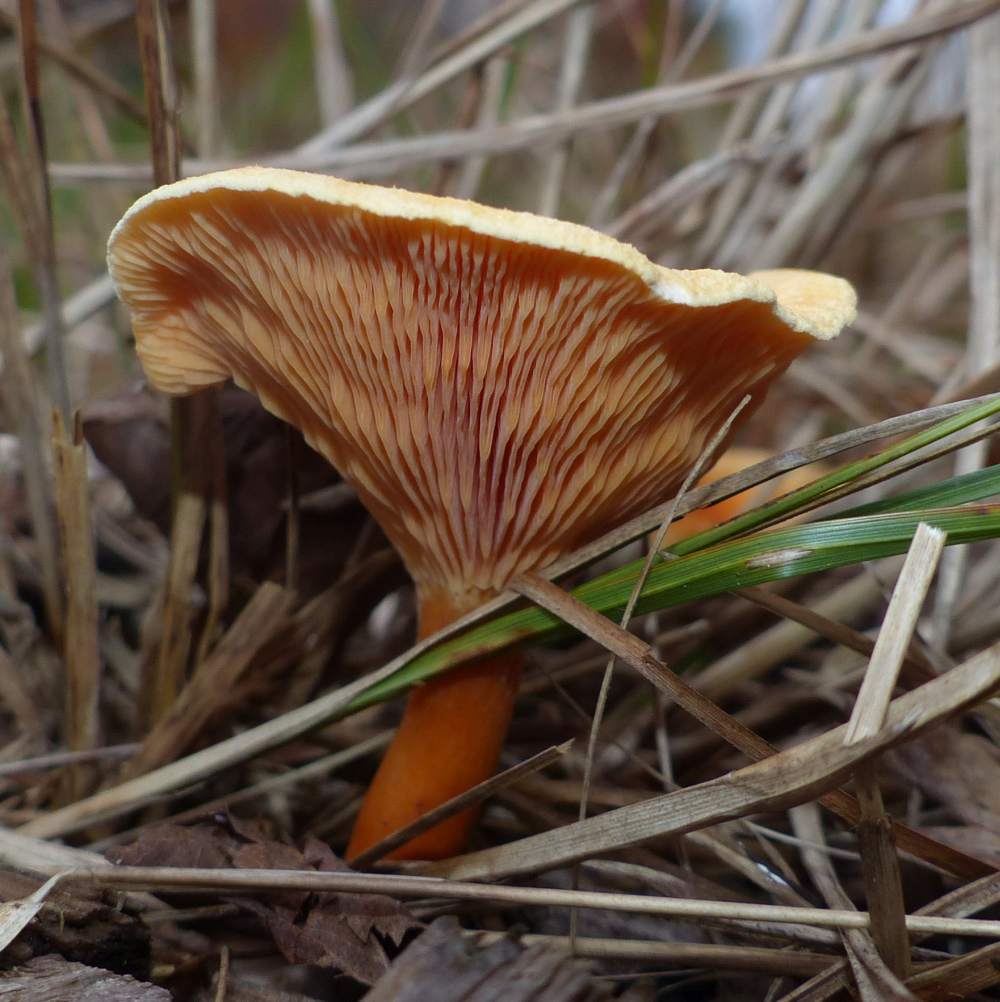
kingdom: Fungi
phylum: Basidiomycota
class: Agaricomycetes
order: Boletales
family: Hygrophoropsidaceae
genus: Hygrophoropsis
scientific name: Hygrophoropsis aurantiaca
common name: False chanterelle
